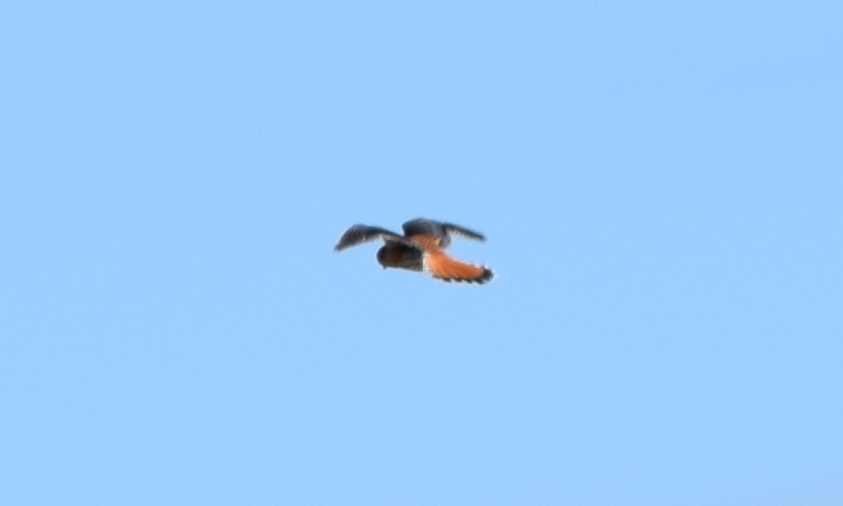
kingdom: Animalia
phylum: Chordata
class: Aves
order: Falconiformes
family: Falconidae
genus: Falco
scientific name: Falco sparverius
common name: American kestrel
